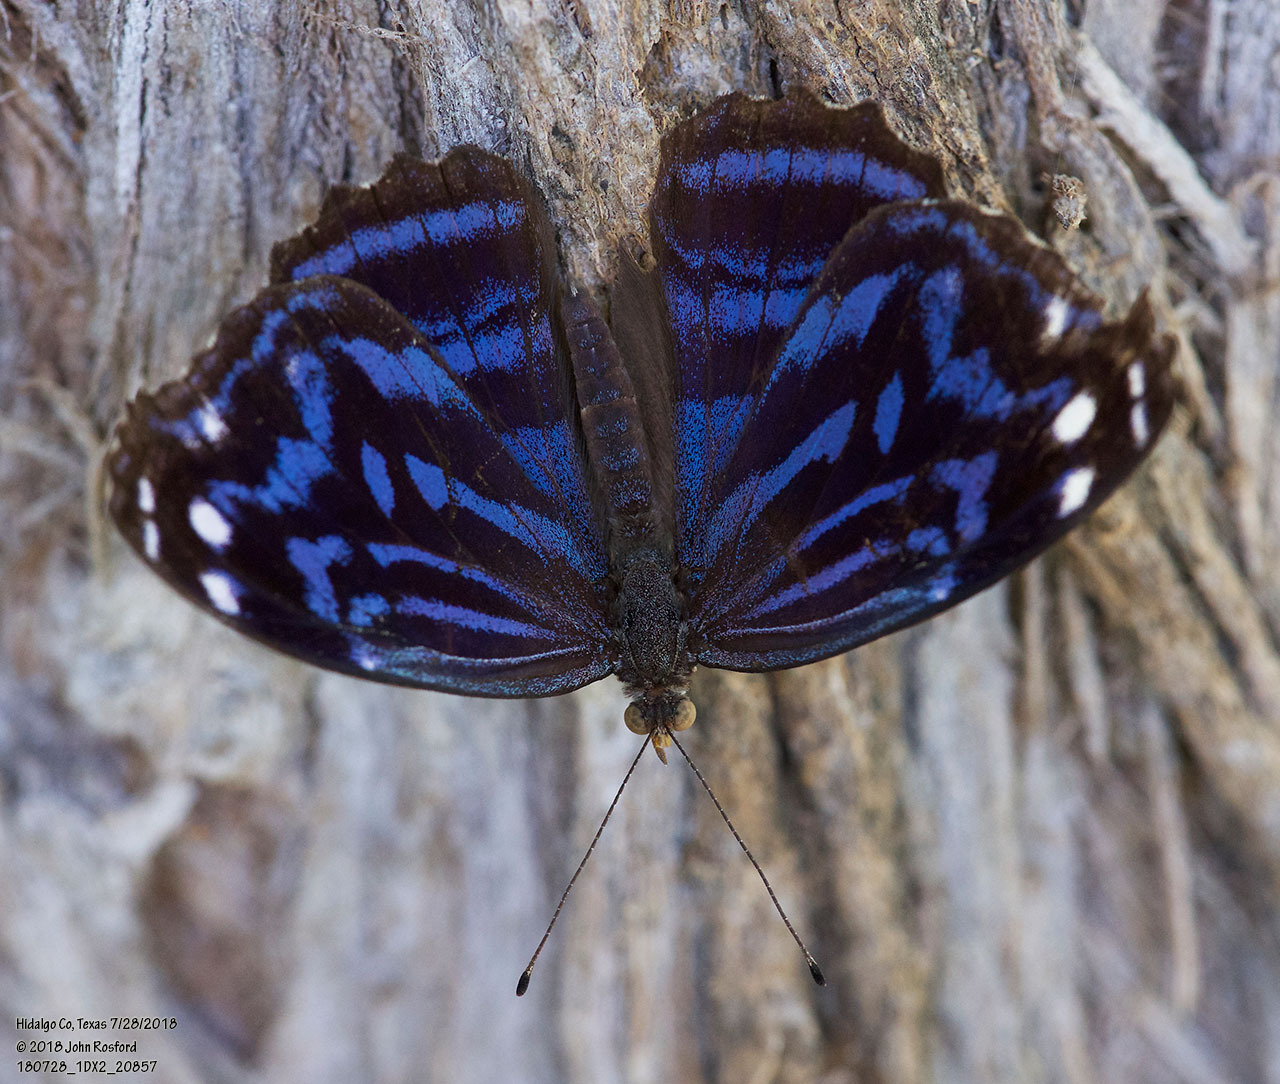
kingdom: Animalia
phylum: Arthropoda
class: Insecta
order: Lepidoptera
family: Nymphalidae
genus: Myscelia
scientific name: Myscelia ethusa
